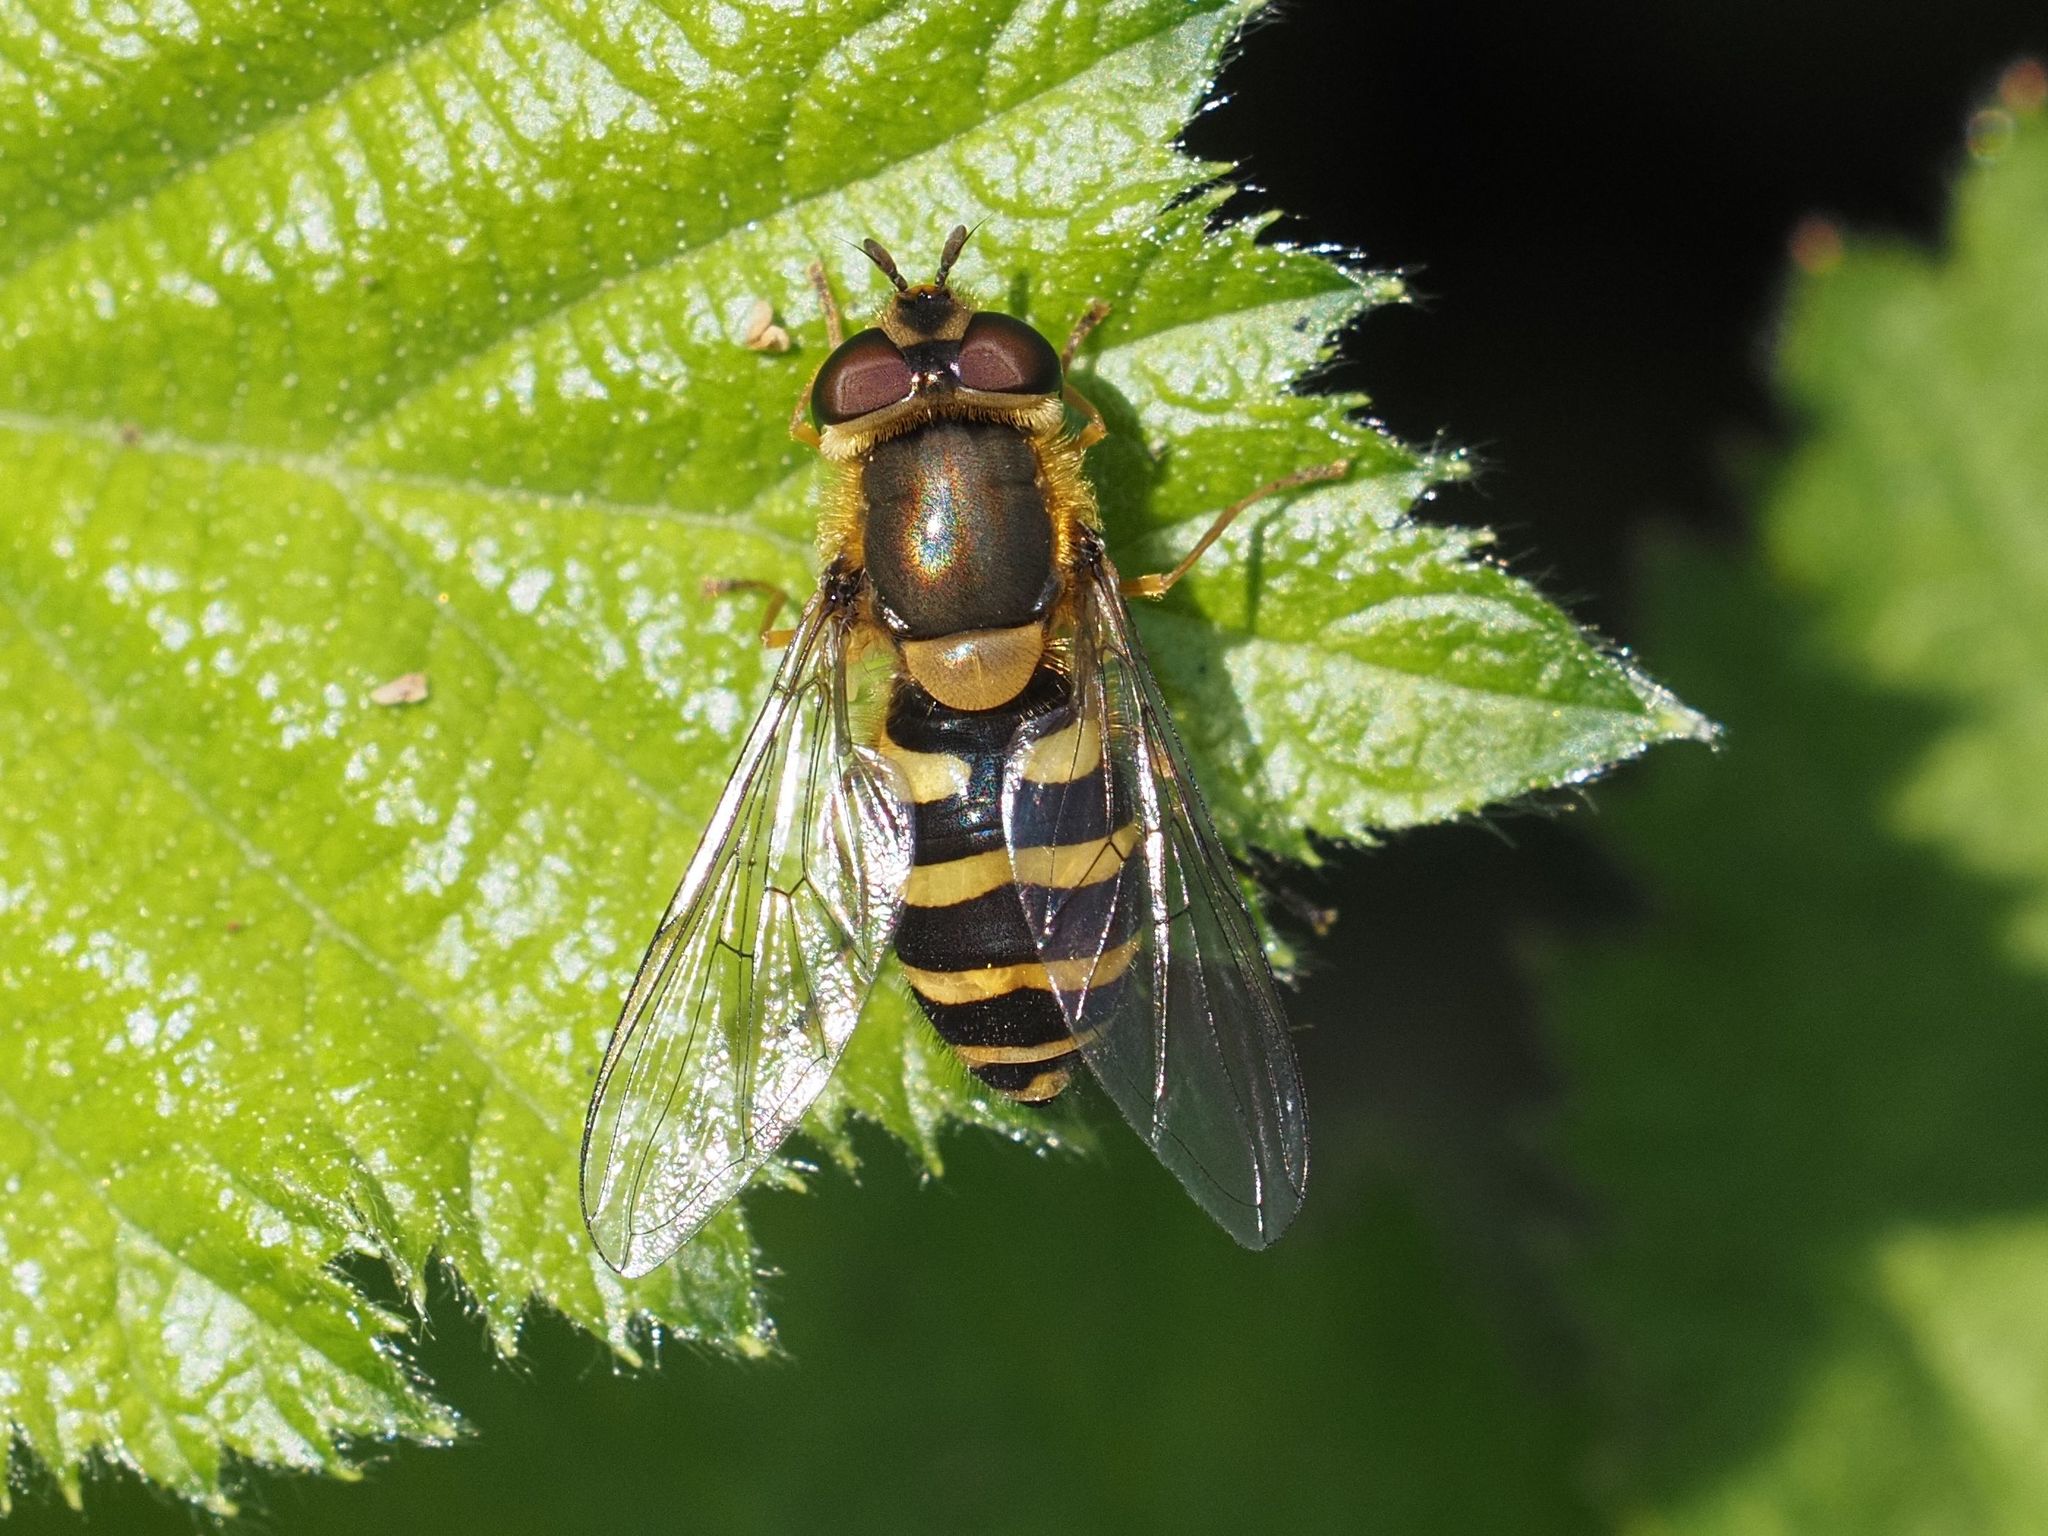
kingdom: Animalia
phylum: Arthropoda
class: Insecta
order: Diptera
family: Syrphidae
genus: Syrphus
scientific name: Syrphus
